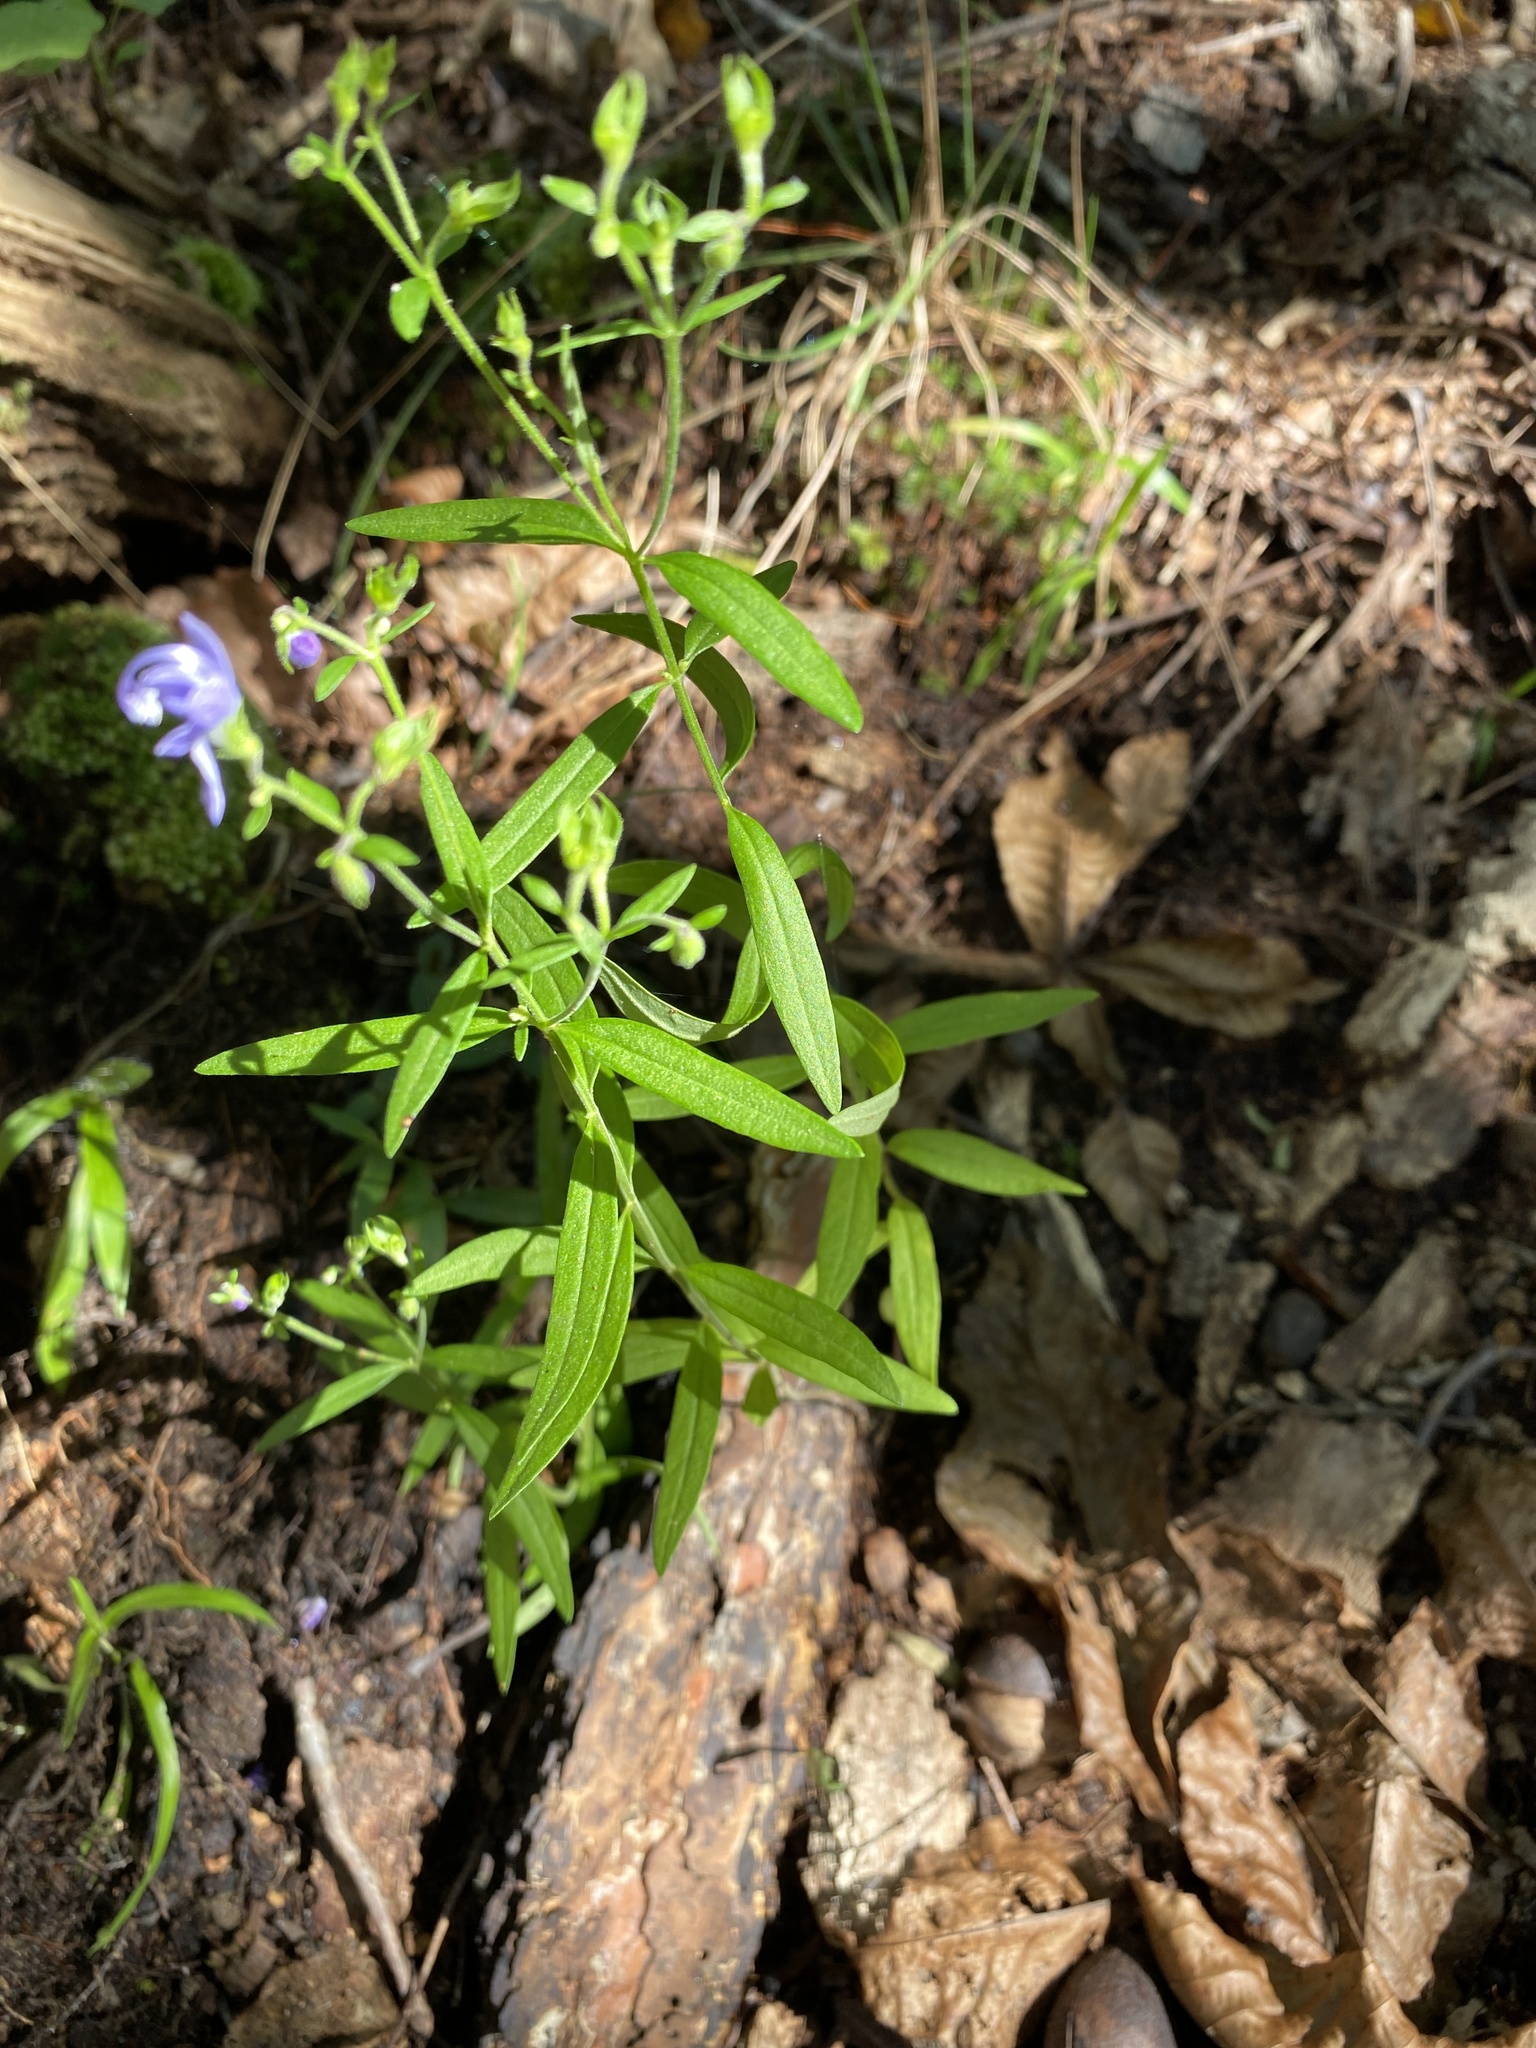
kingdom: Plantae
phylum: Tracheophyta
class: Magnoliopsida
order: Lamiales
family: Lamiaceae
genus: Trichostema
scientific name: Trichostema setaceum
